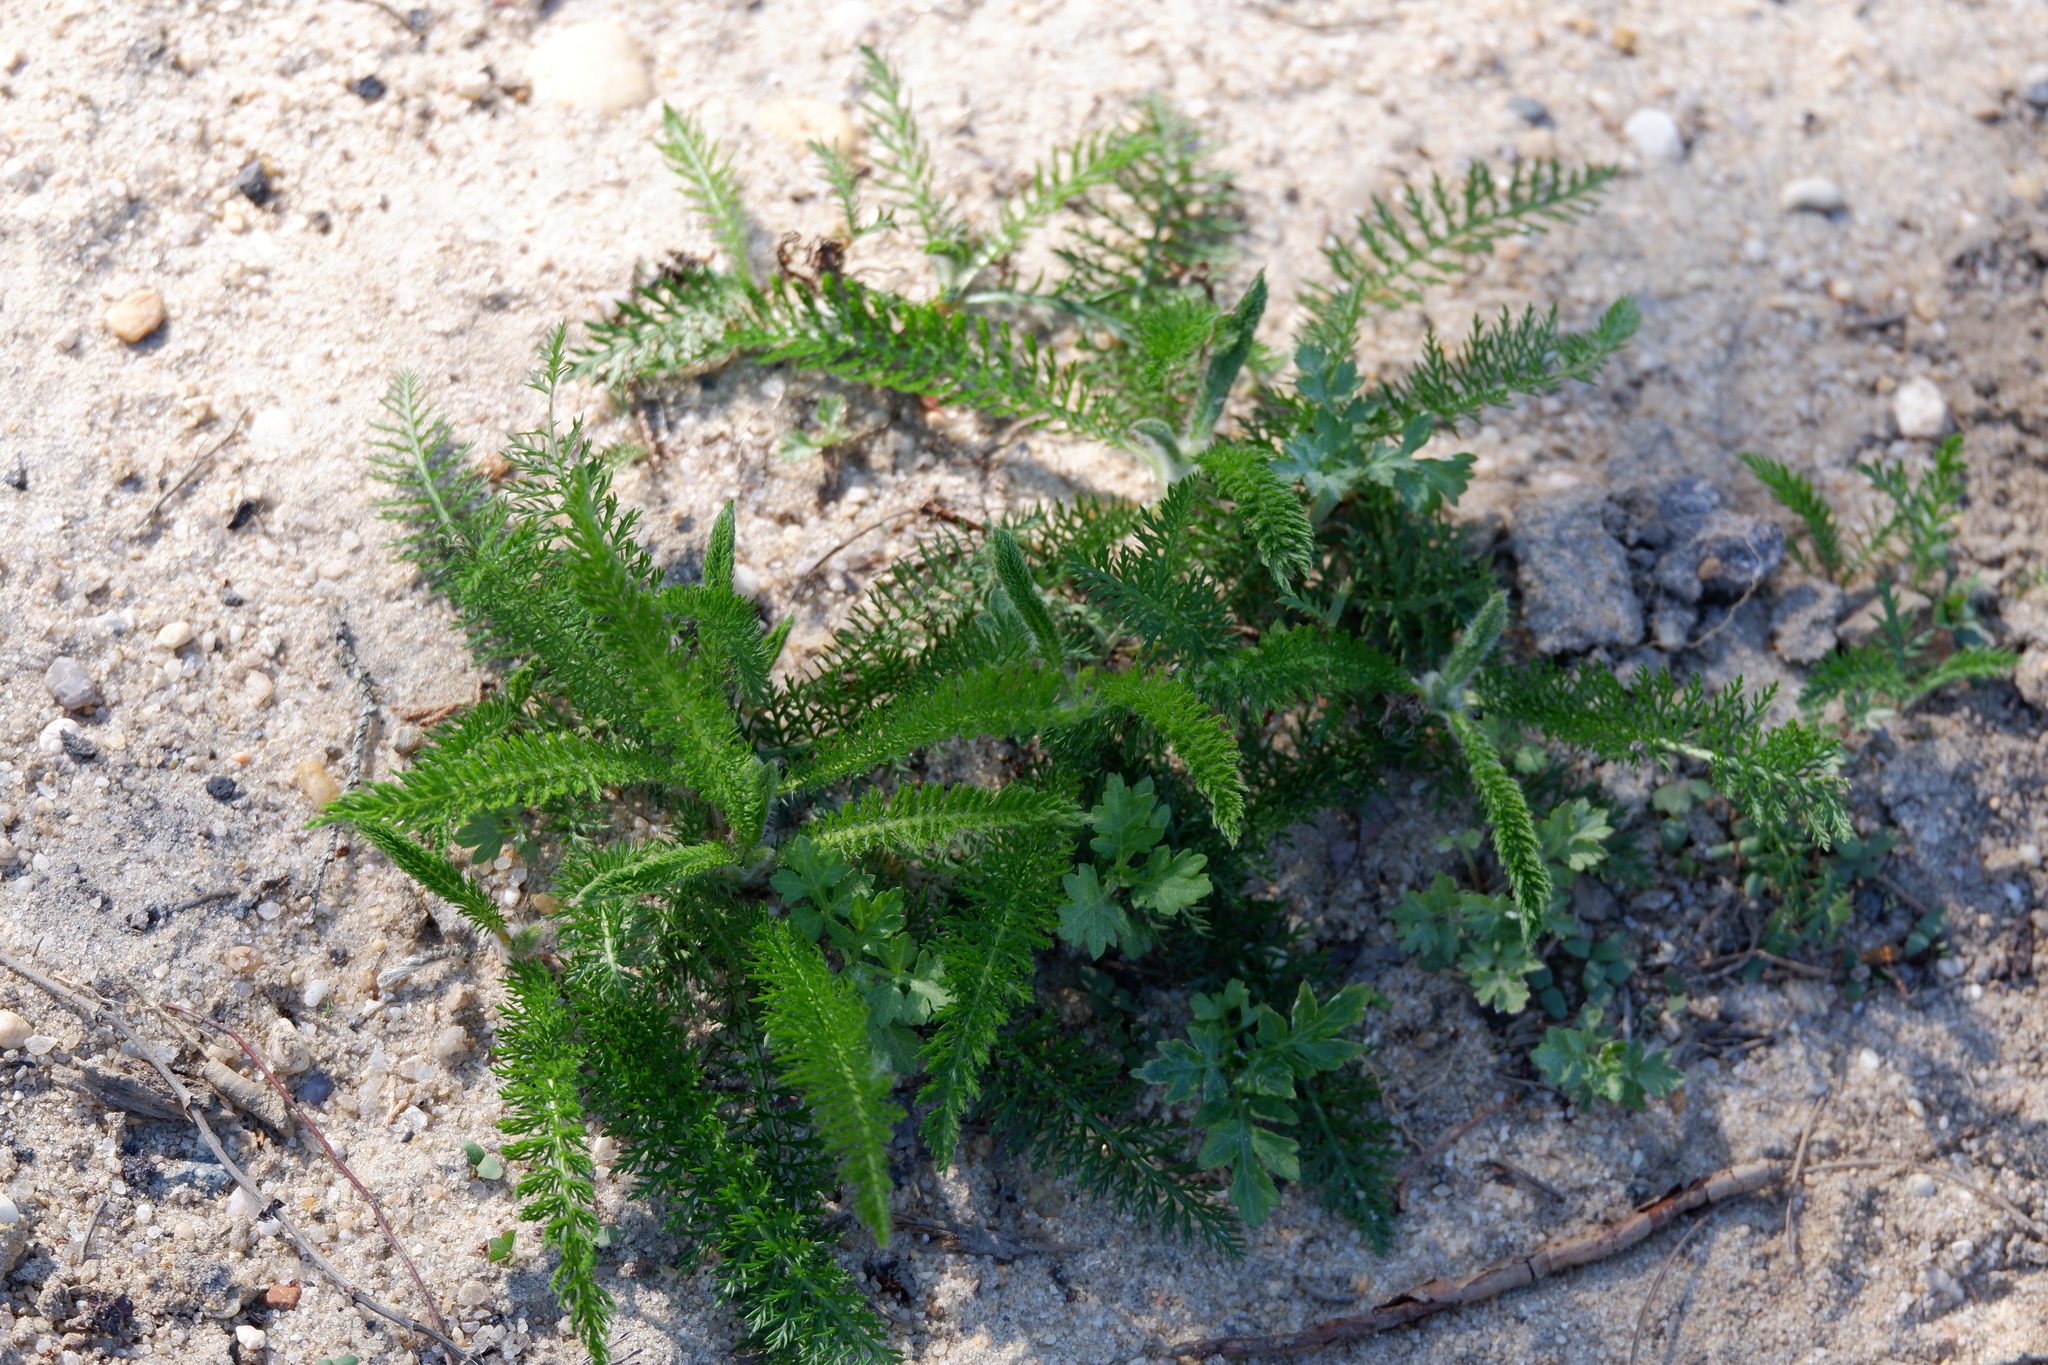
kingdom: Plantae
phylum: Tracheophyta
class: Magnoliopsida
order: Asterales
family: Asteraceae
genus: Achillea
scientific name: Achillea millefolium
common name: Yarrow
